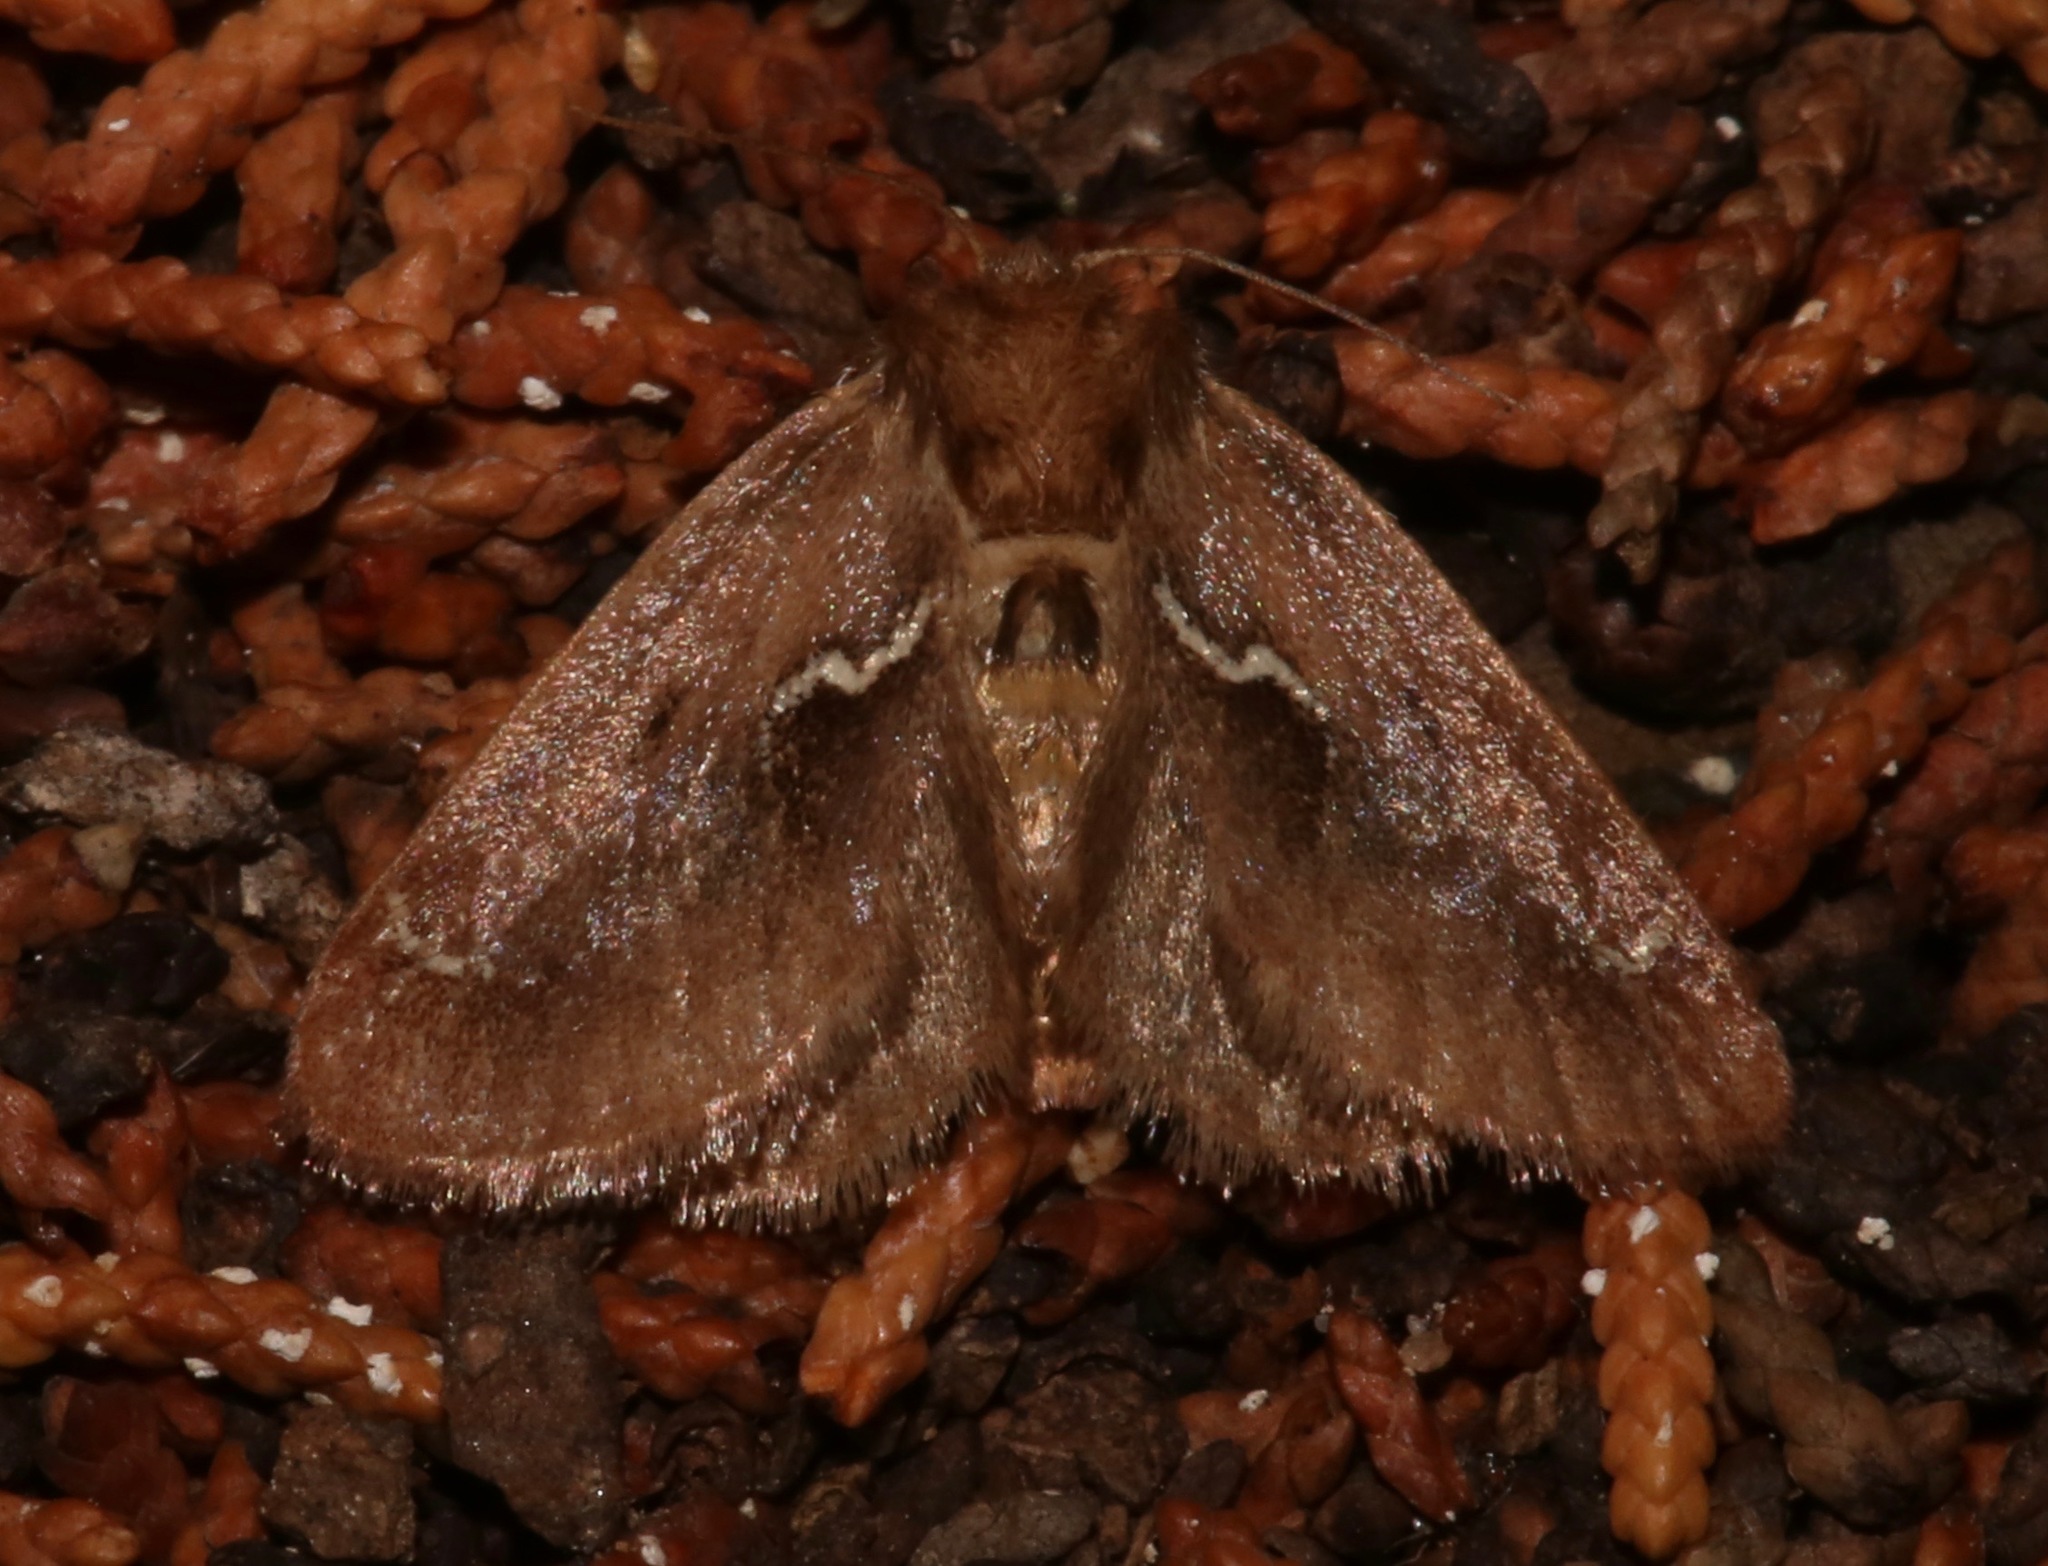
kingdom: Animalia
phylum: Arthropoda
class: Insecta
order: Lepidoptera
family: Limacodidae
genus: Euclea
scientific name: Euclea obliqua
